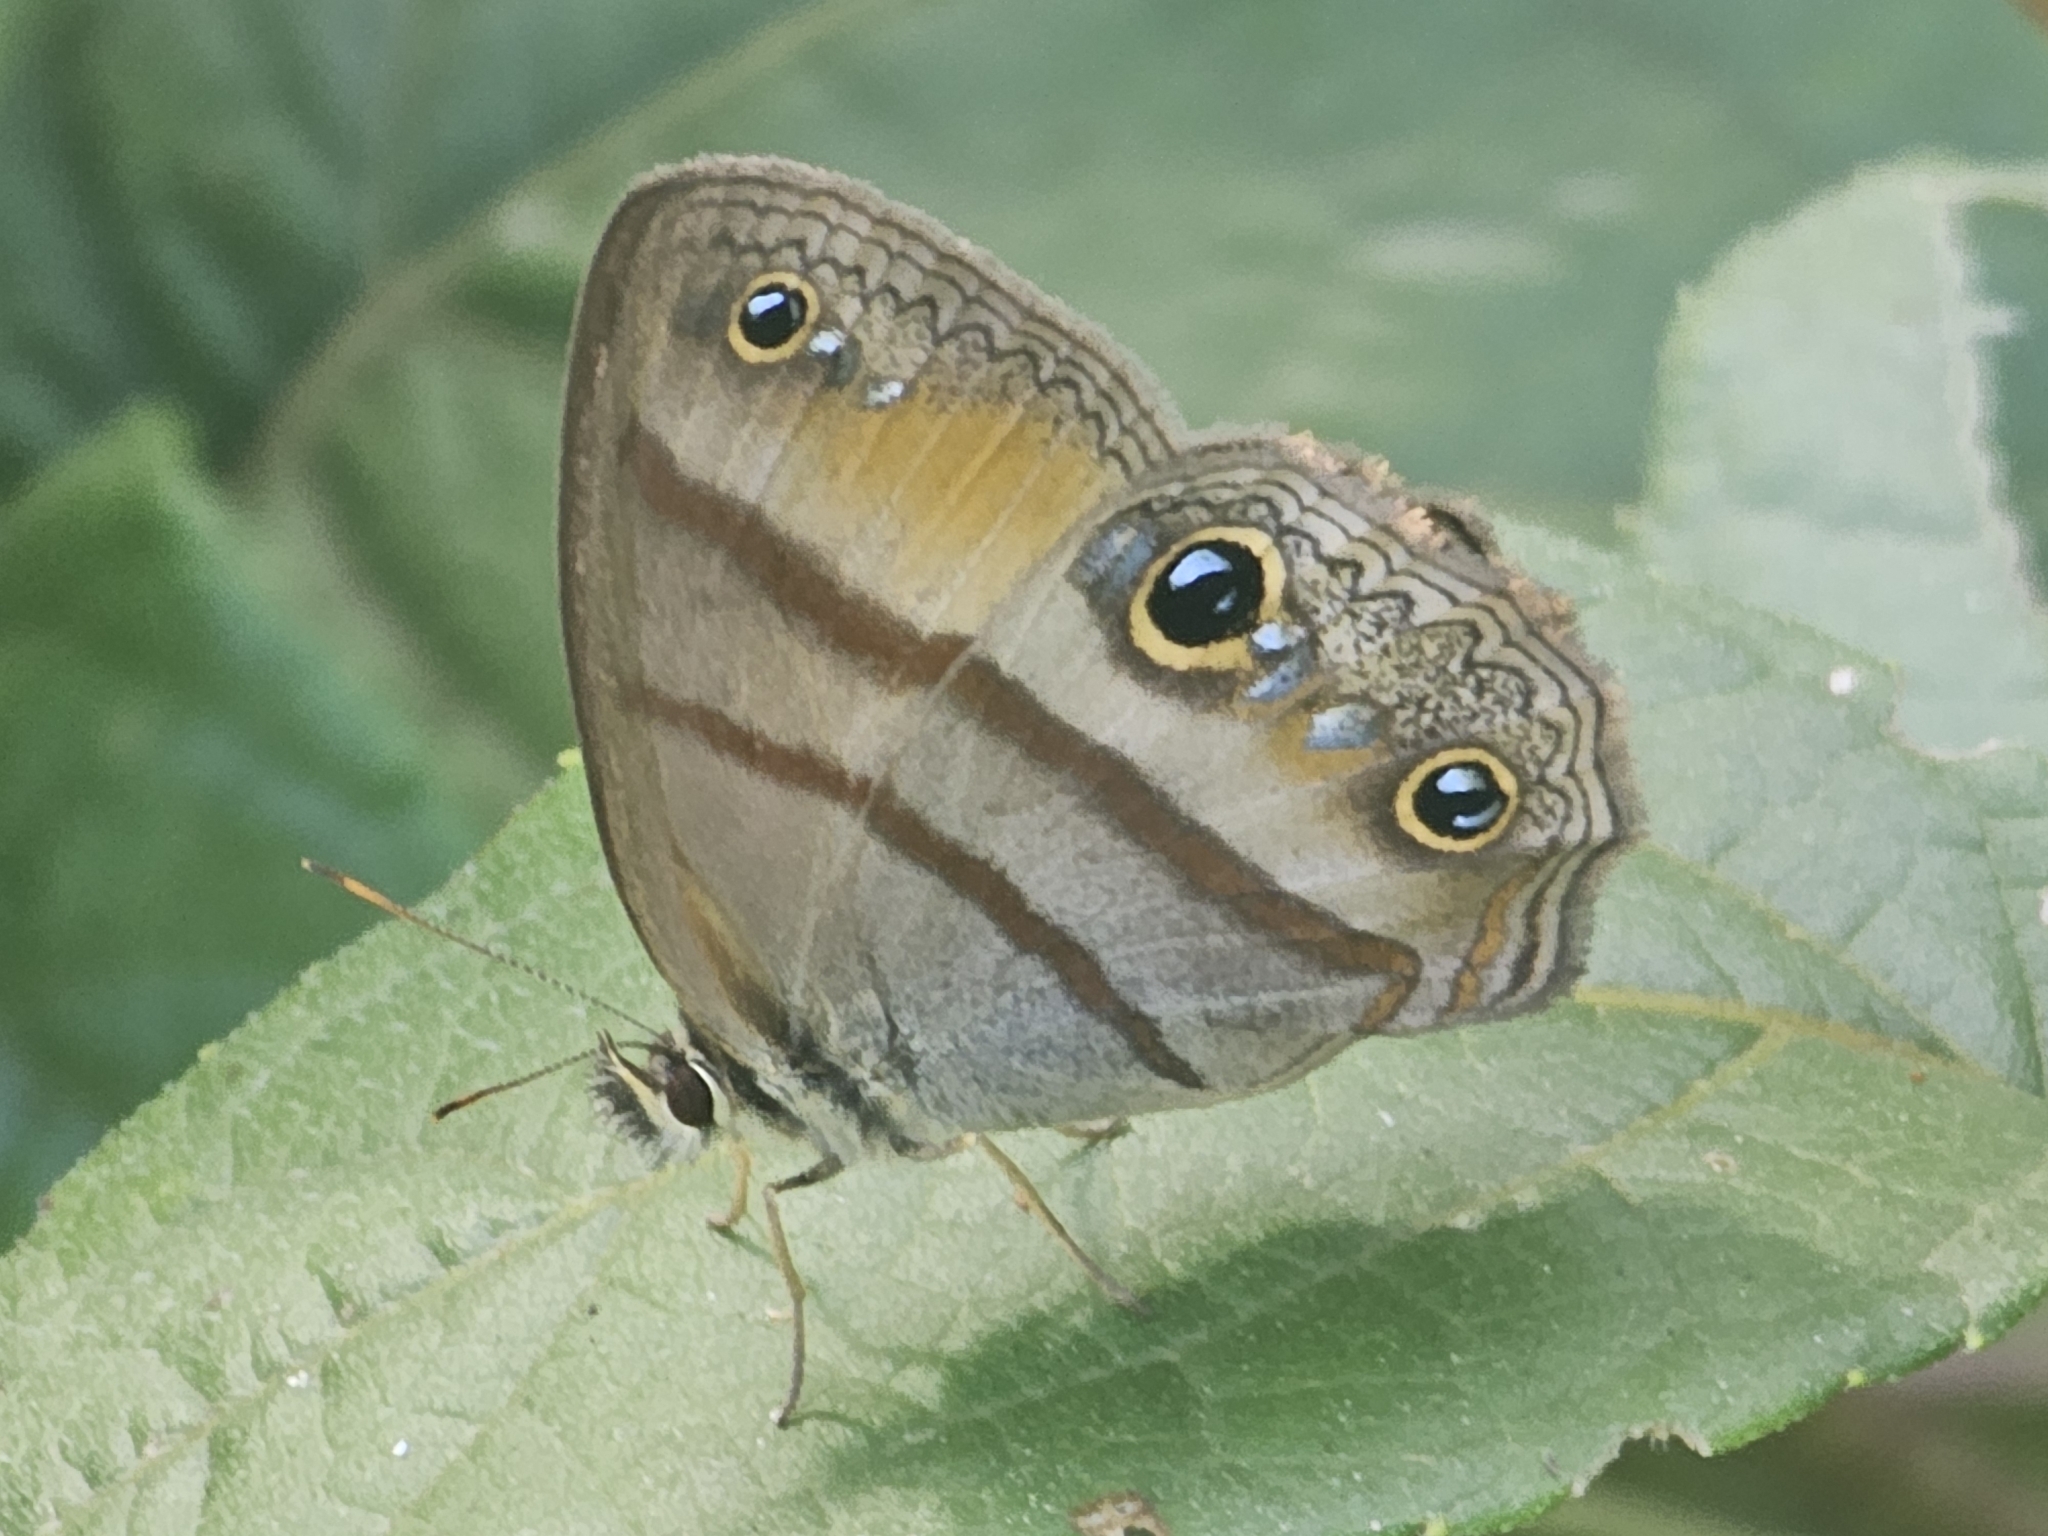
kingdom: Animalia
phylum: Arthropoda
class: Insecta
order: Lepidoptera
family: Nymphalidae
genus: Argyreuptychia
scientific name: Argyreuptychia penelope
